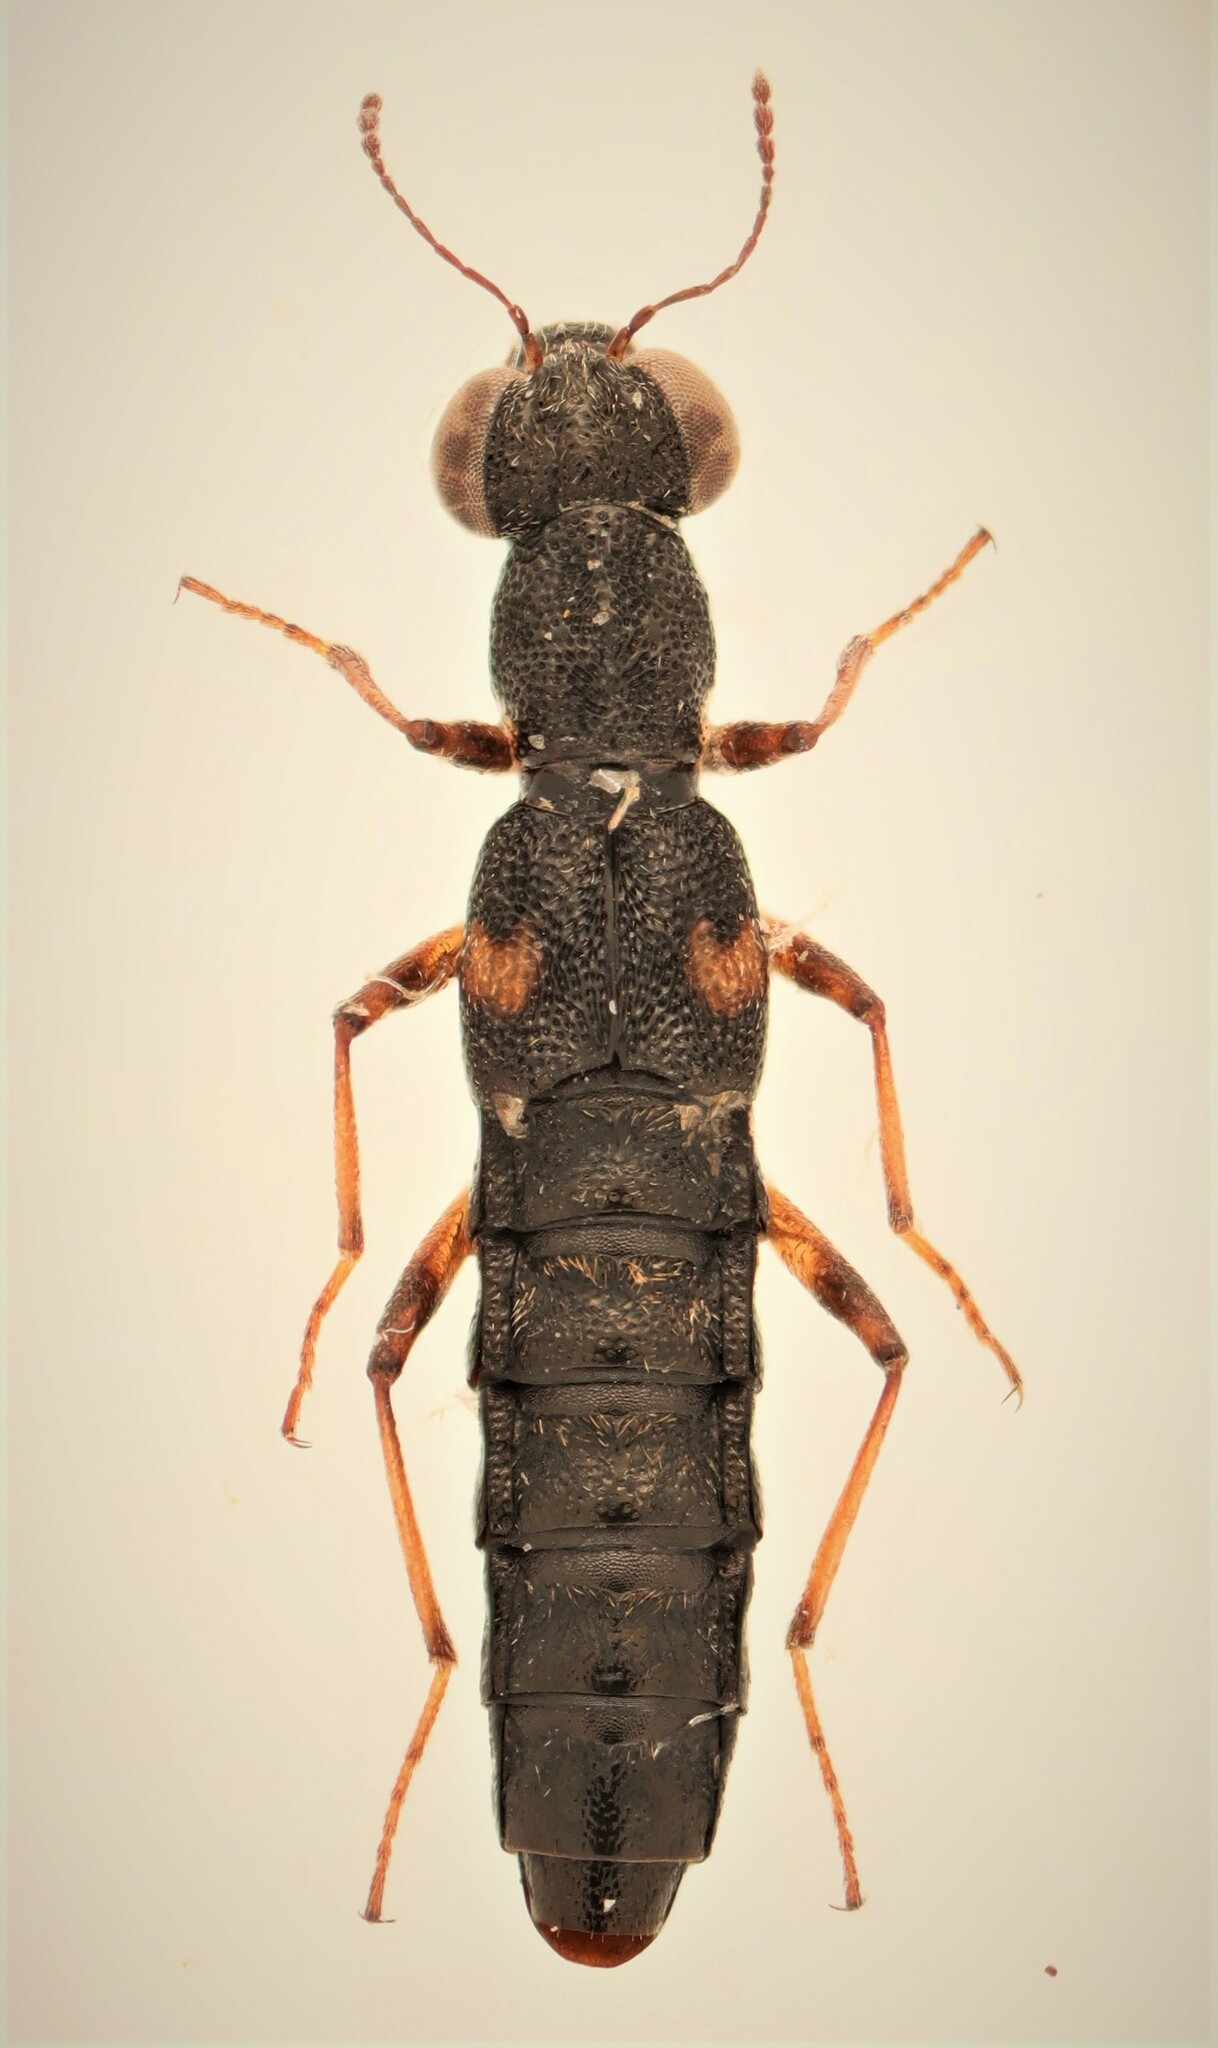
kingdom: Animalia
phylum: Arthropoda
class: Insecta
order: Coleoptera
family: Staphylinidae
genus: Stenus
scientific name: Stenus colon
